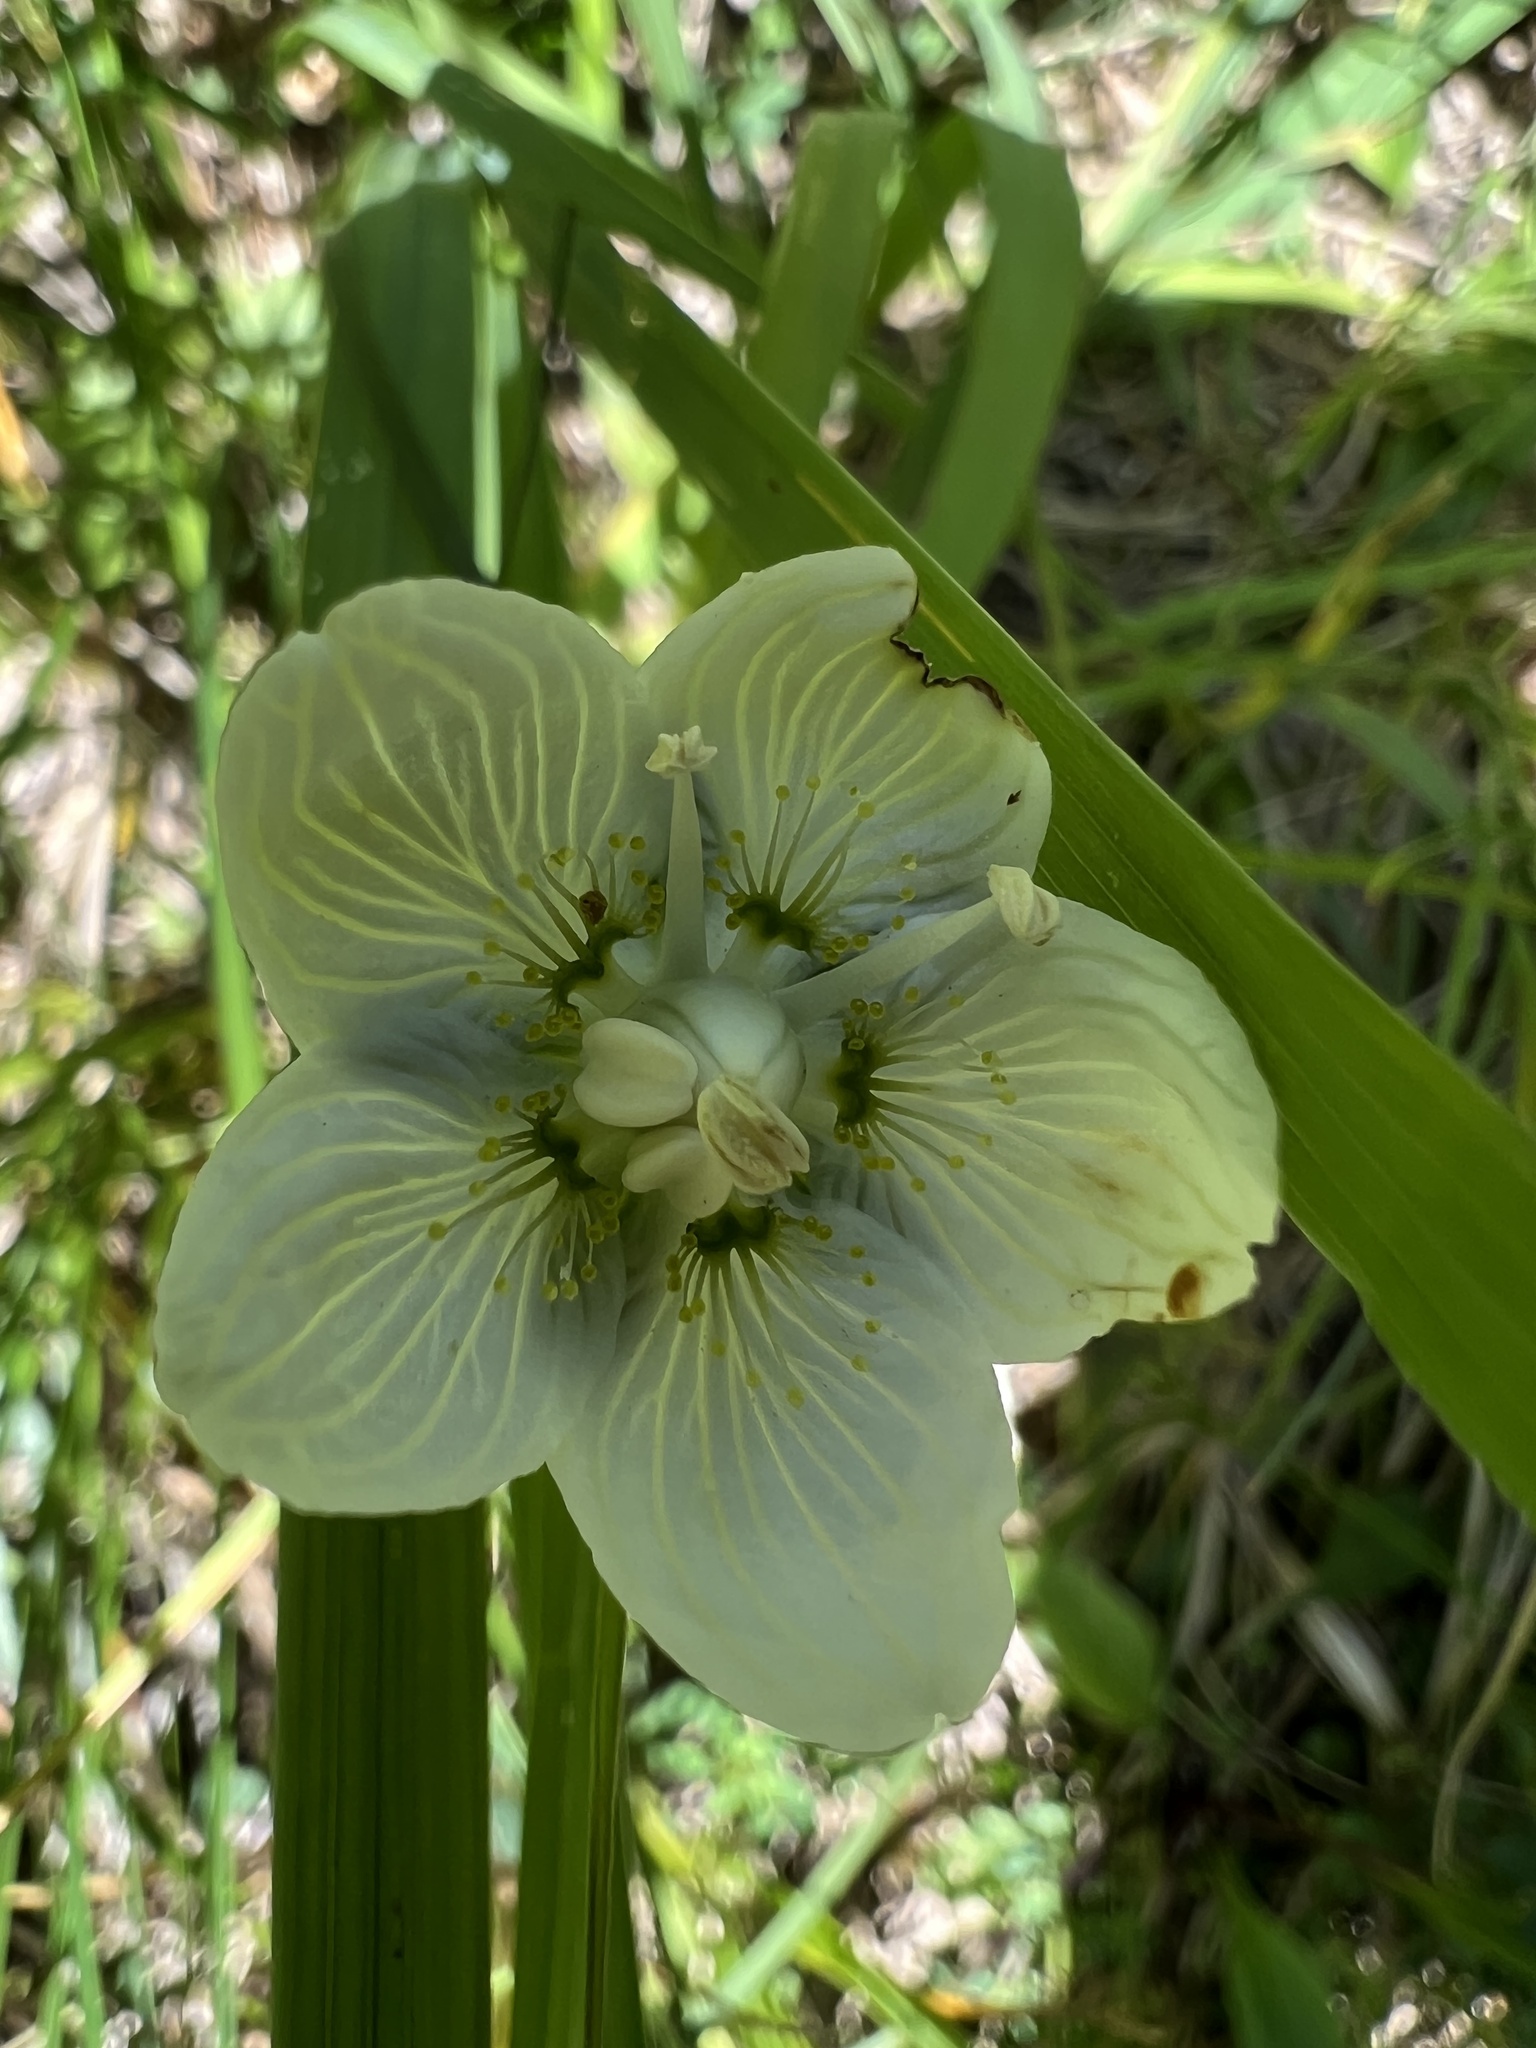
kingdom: Plantae
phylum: Tracheophyta
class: Magnoliopsida
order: Celastrales
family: Parnassiaceae
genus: Parnassia
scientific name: Parnassia palustris
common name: Grass-of-parnassus
